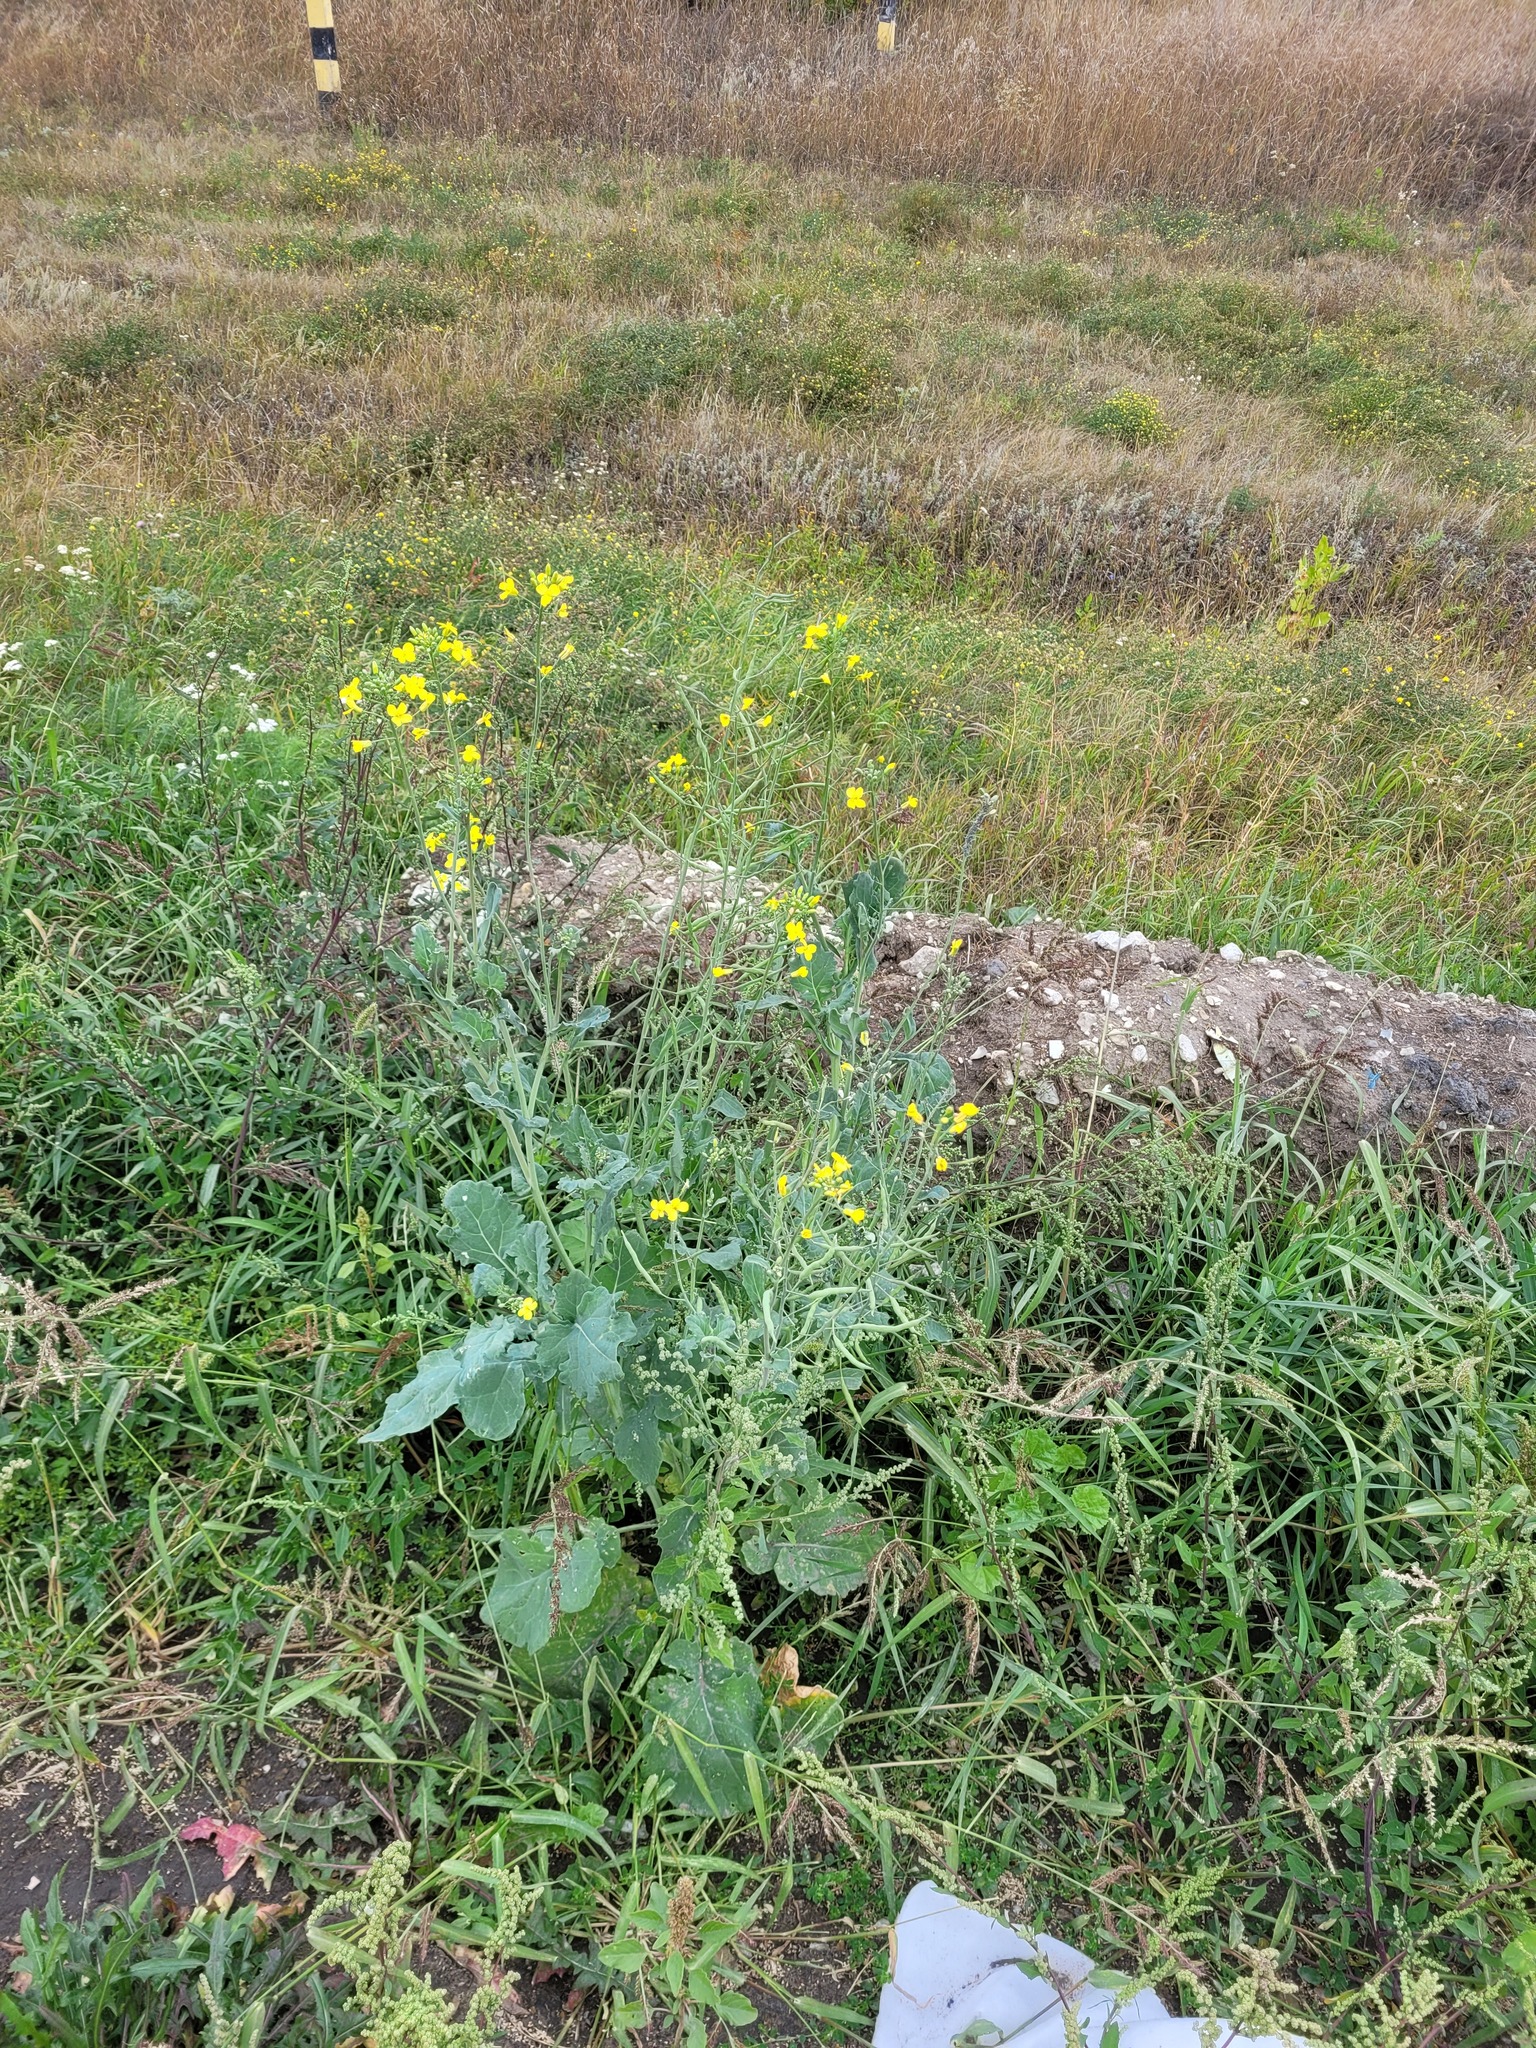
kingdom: Plantae
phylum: Tracheophyta
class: Magnoliopsida
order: Brassicales
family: Brassicaceae
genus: Brassica
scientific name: Brassica napus
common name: Rape
